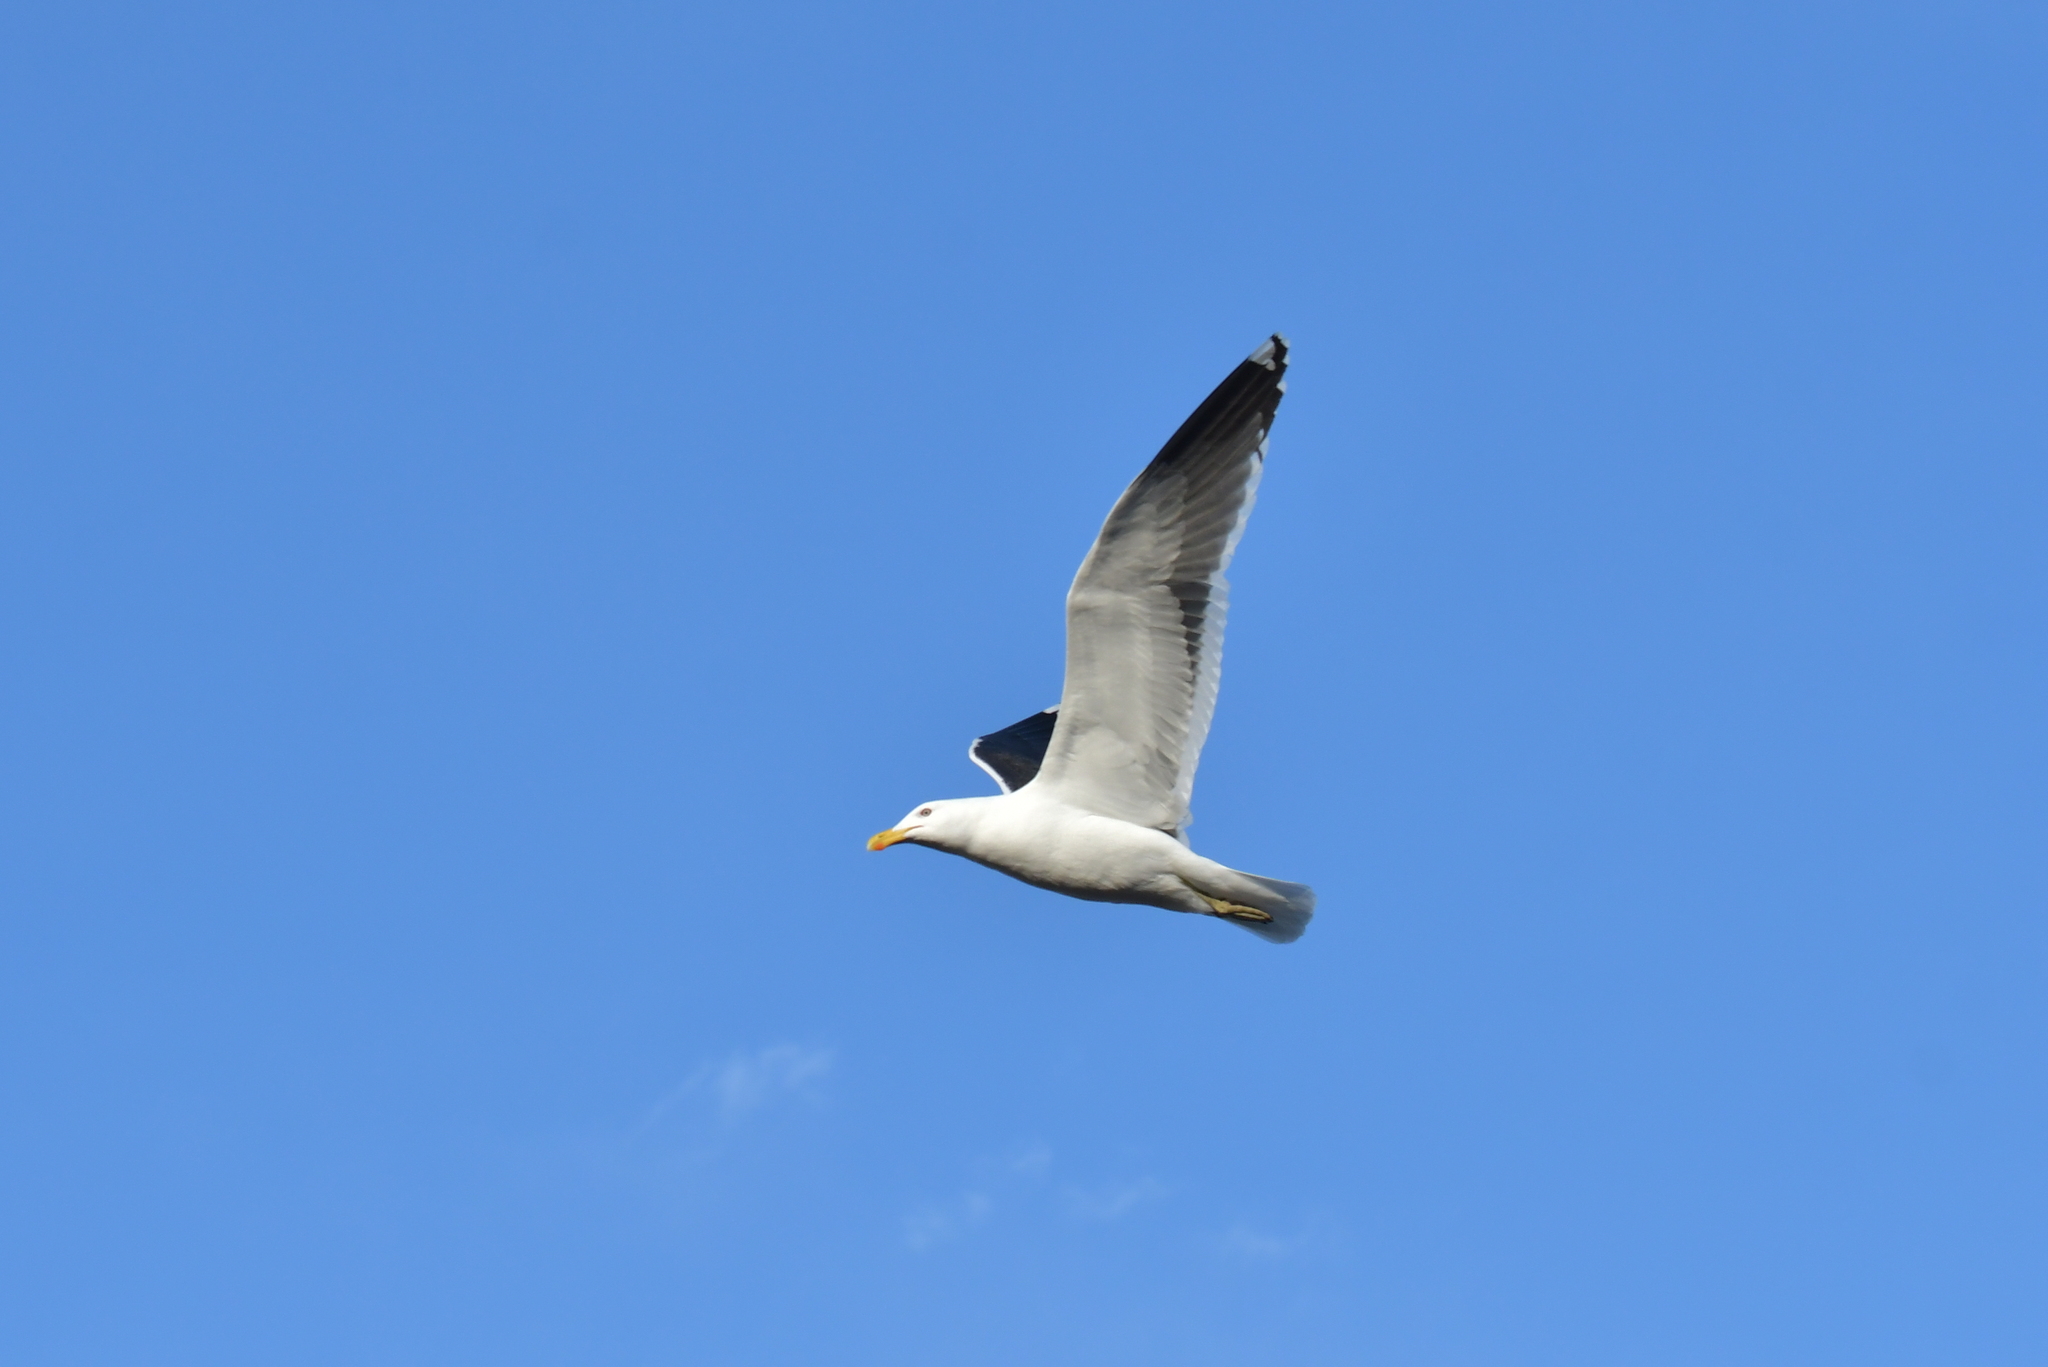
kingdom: Animalia
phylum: Chordata
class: Aves
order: Charadriiformes
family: Laridae
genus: Larus
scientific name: Larus dominicanus
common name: Kelp gull
